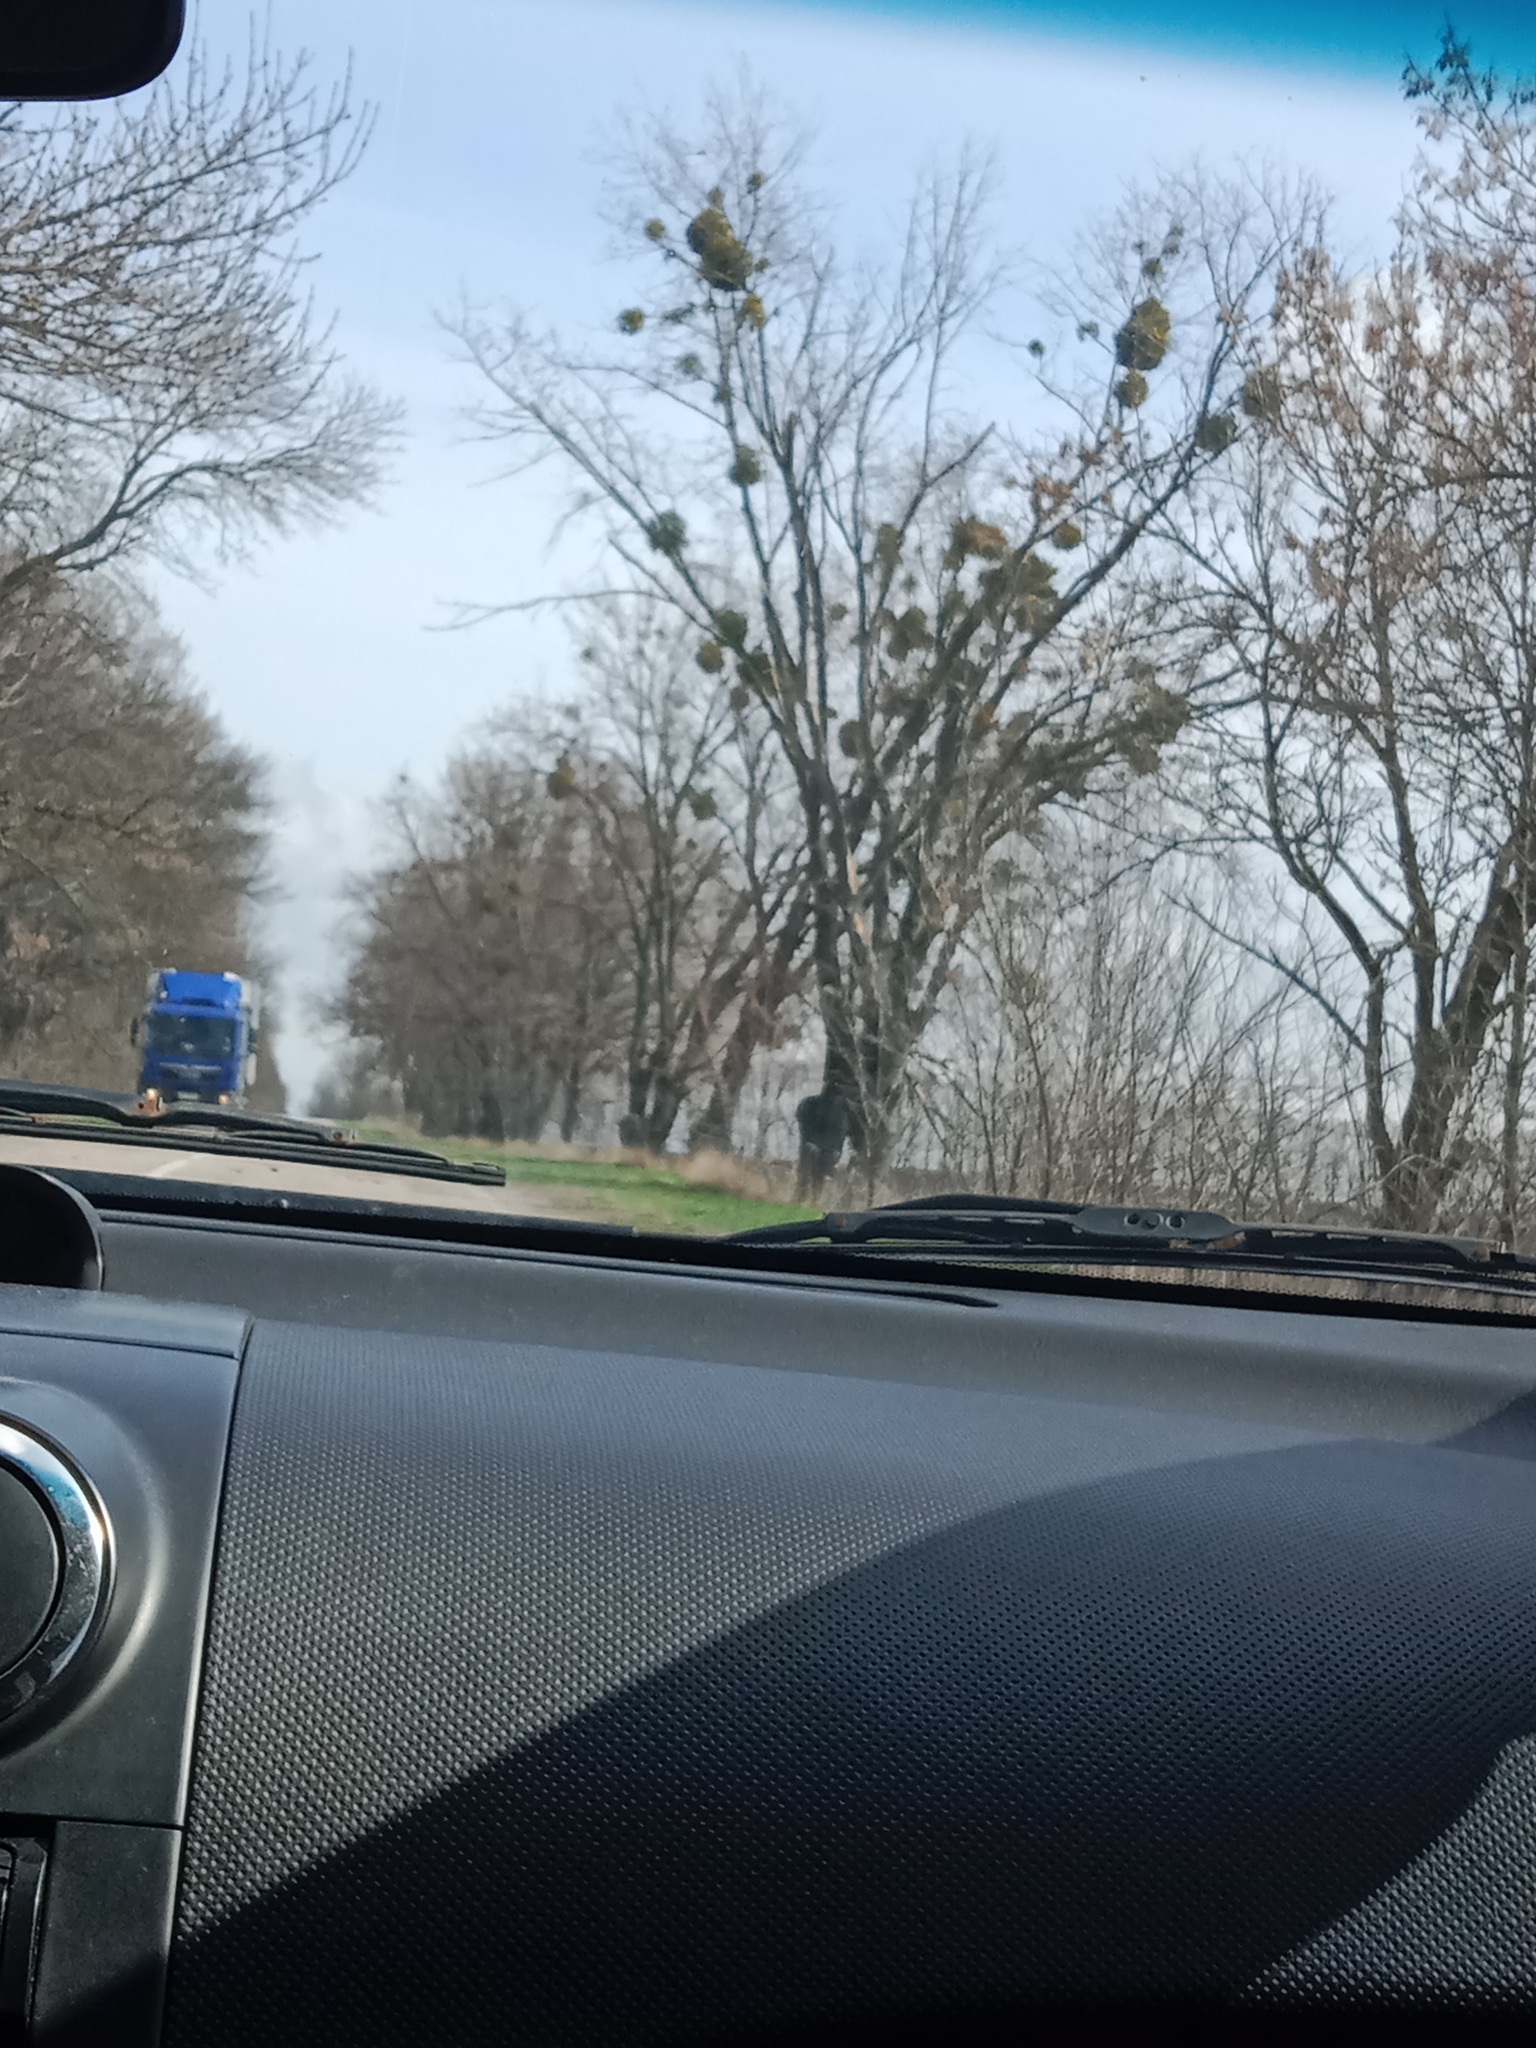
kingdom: Plantae
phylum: Tracheophyta
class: Magnoliopsida
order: Santalales
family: Viscaceae
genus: Viscum
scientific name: Viscum album
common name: Mistletoe
